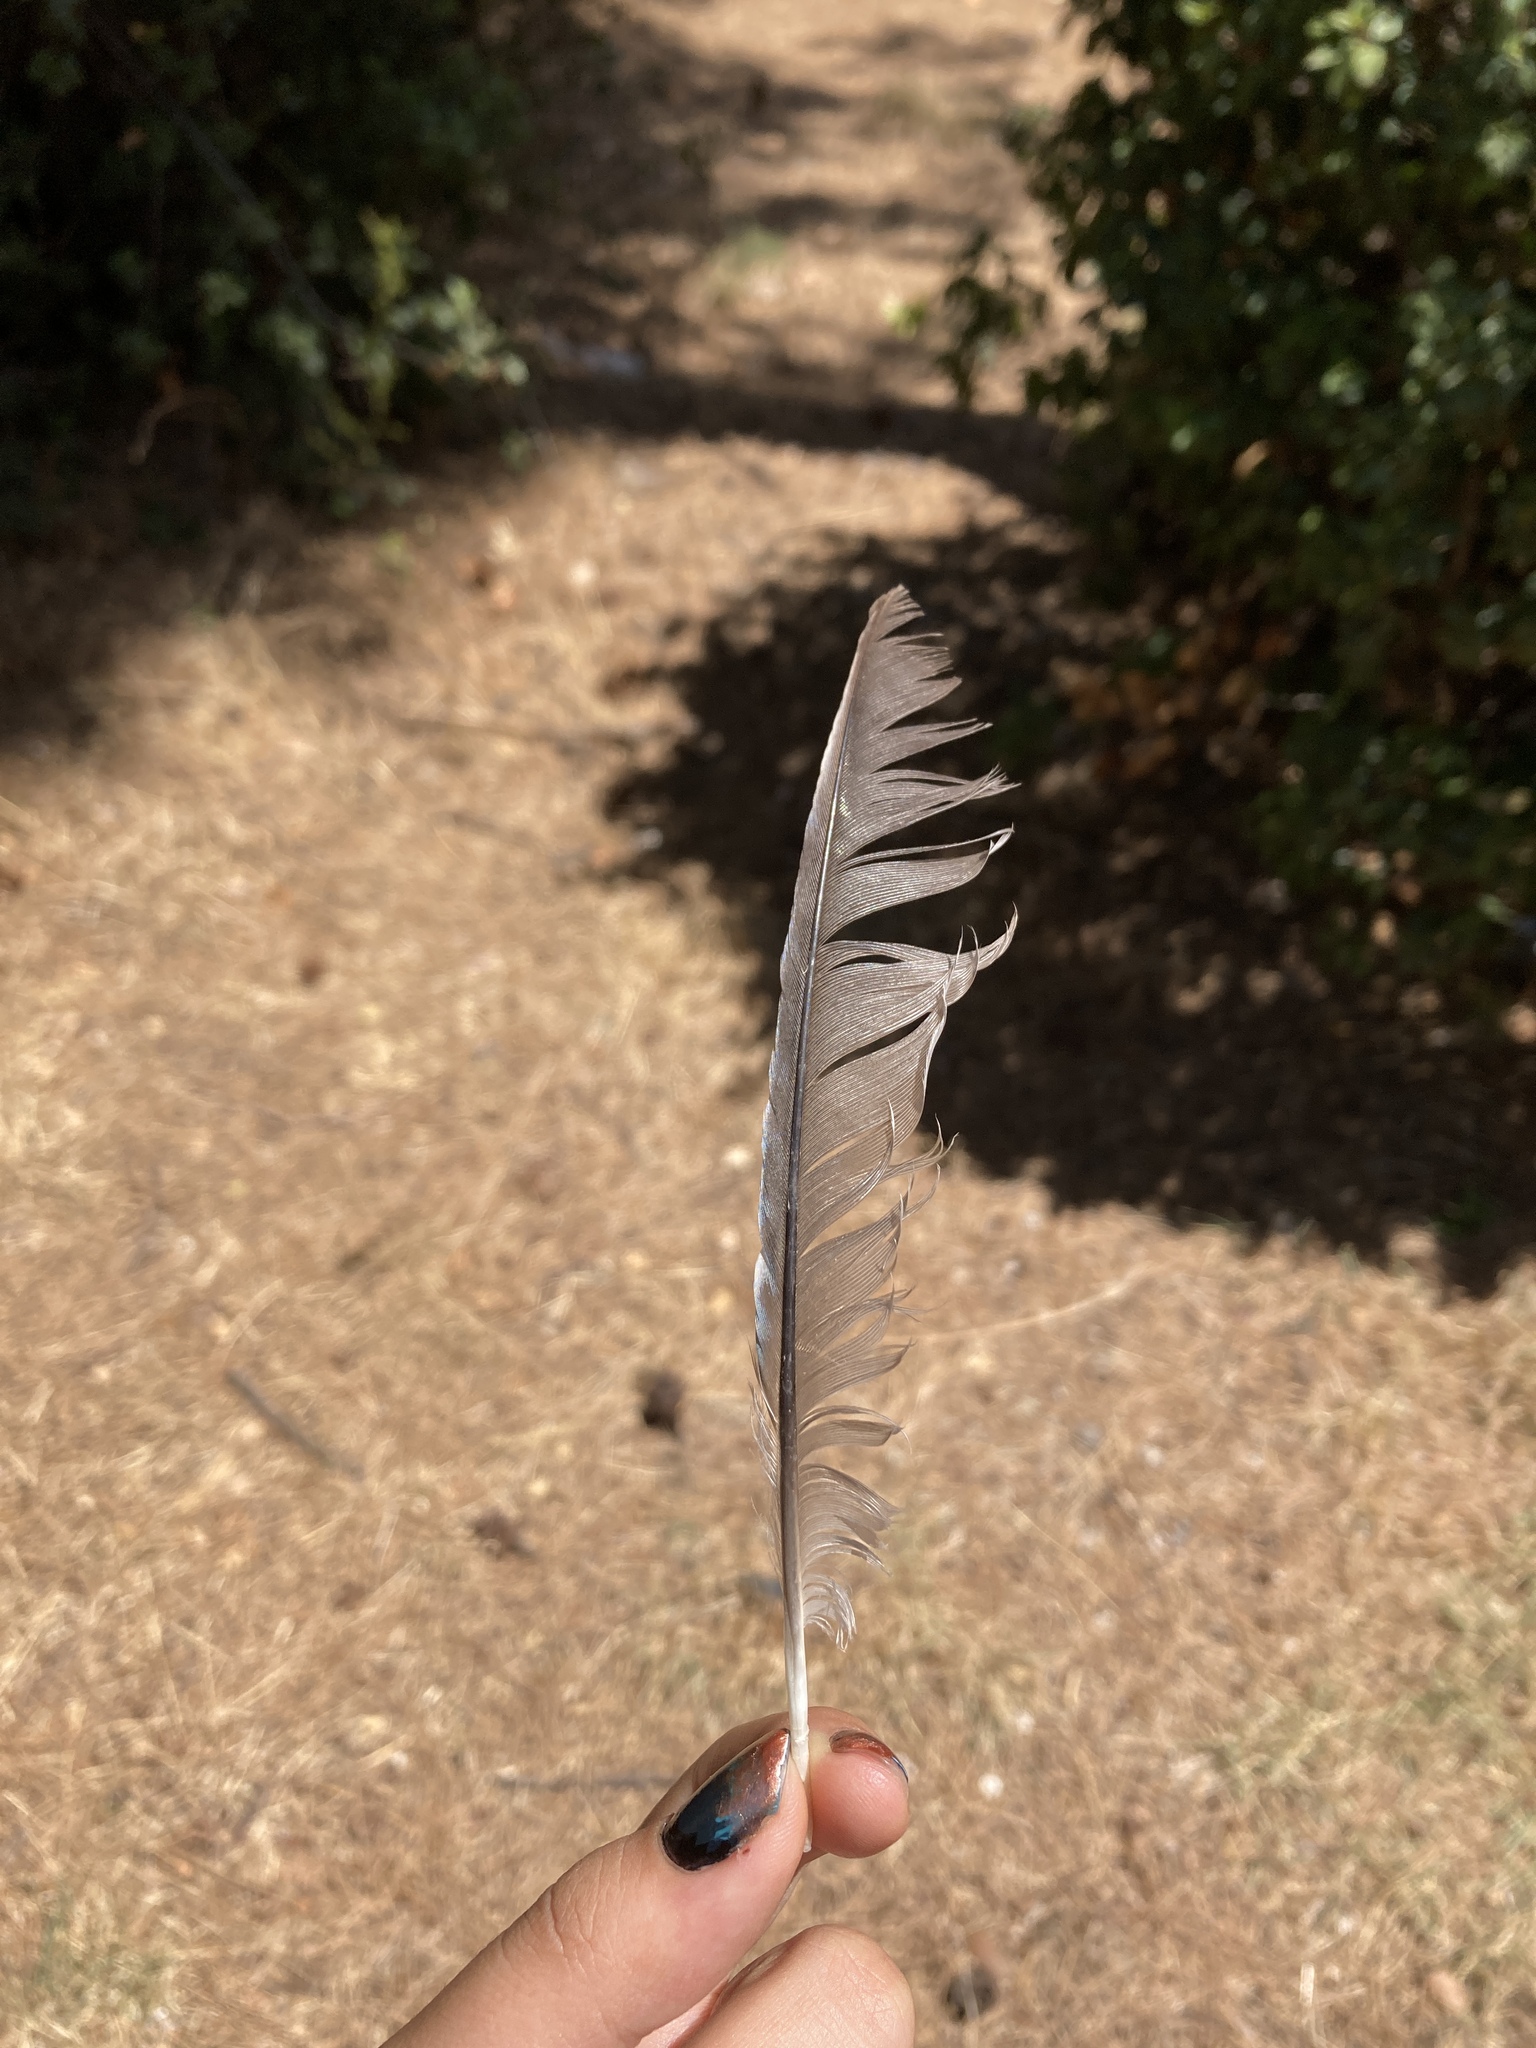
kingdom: Animalia
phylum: Chordata
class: Aves
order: Passeriformes
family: Corvidae
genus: Garrulus
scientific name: Garrulus glandarius
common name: Eurasian jay
